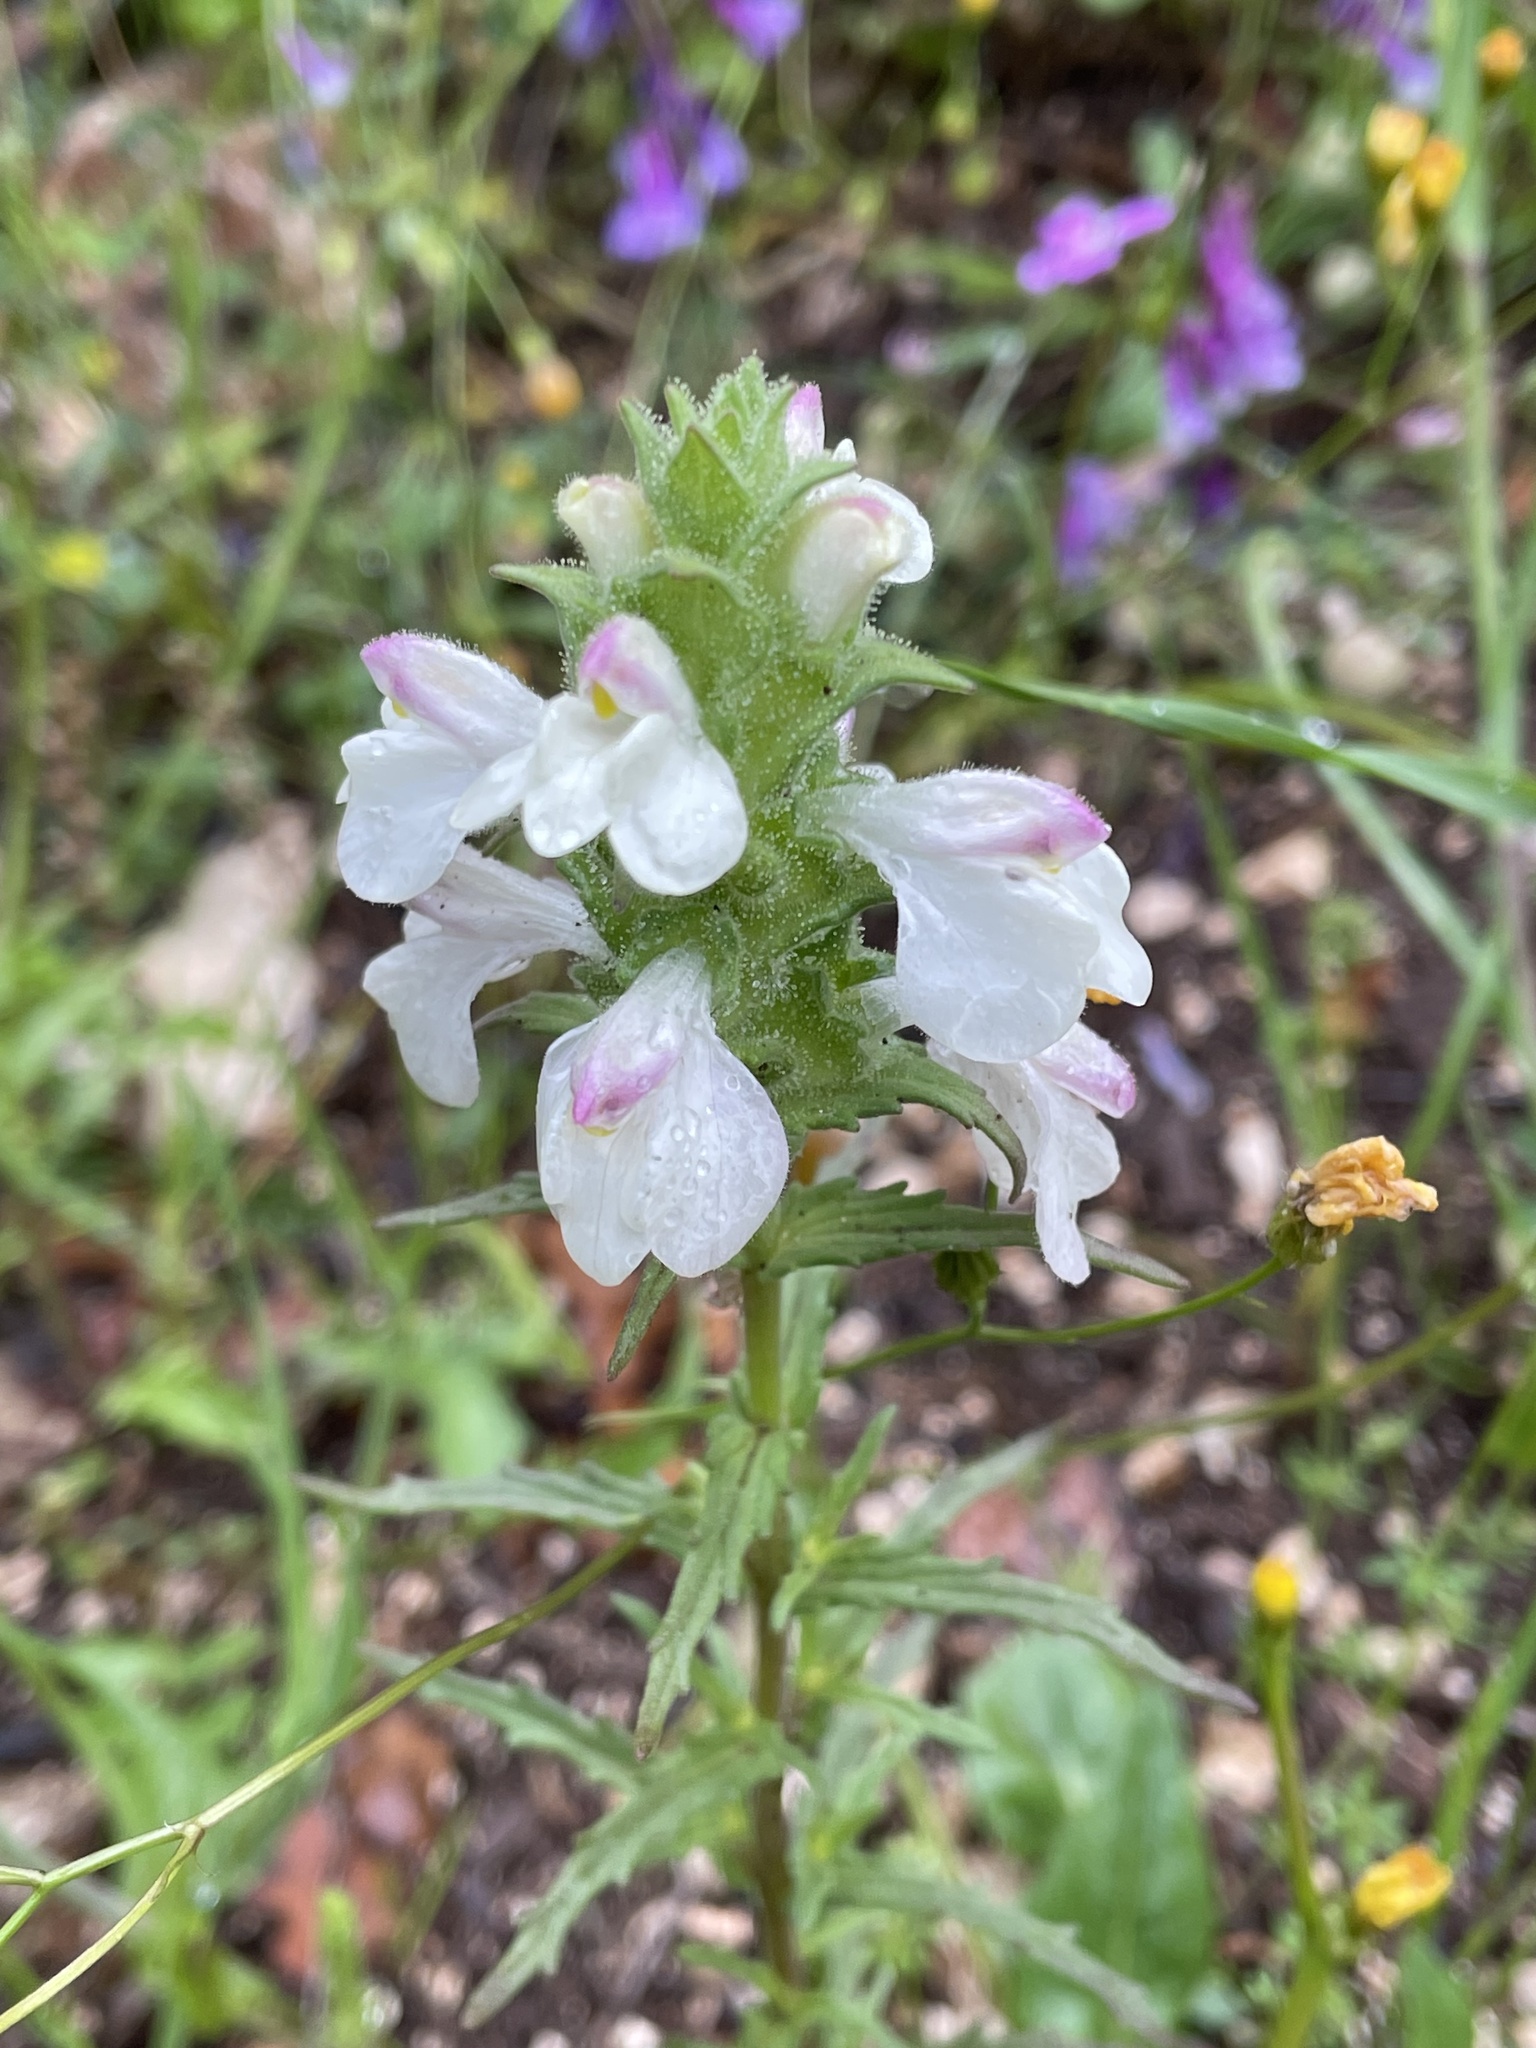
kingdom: Plantae
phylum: Tracheophyta
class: Magnoliopsida
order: Lamiales
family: Orobanchaceae
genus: Bellardia
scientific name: Bellardia trixago
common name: Mediterranean lineseed
